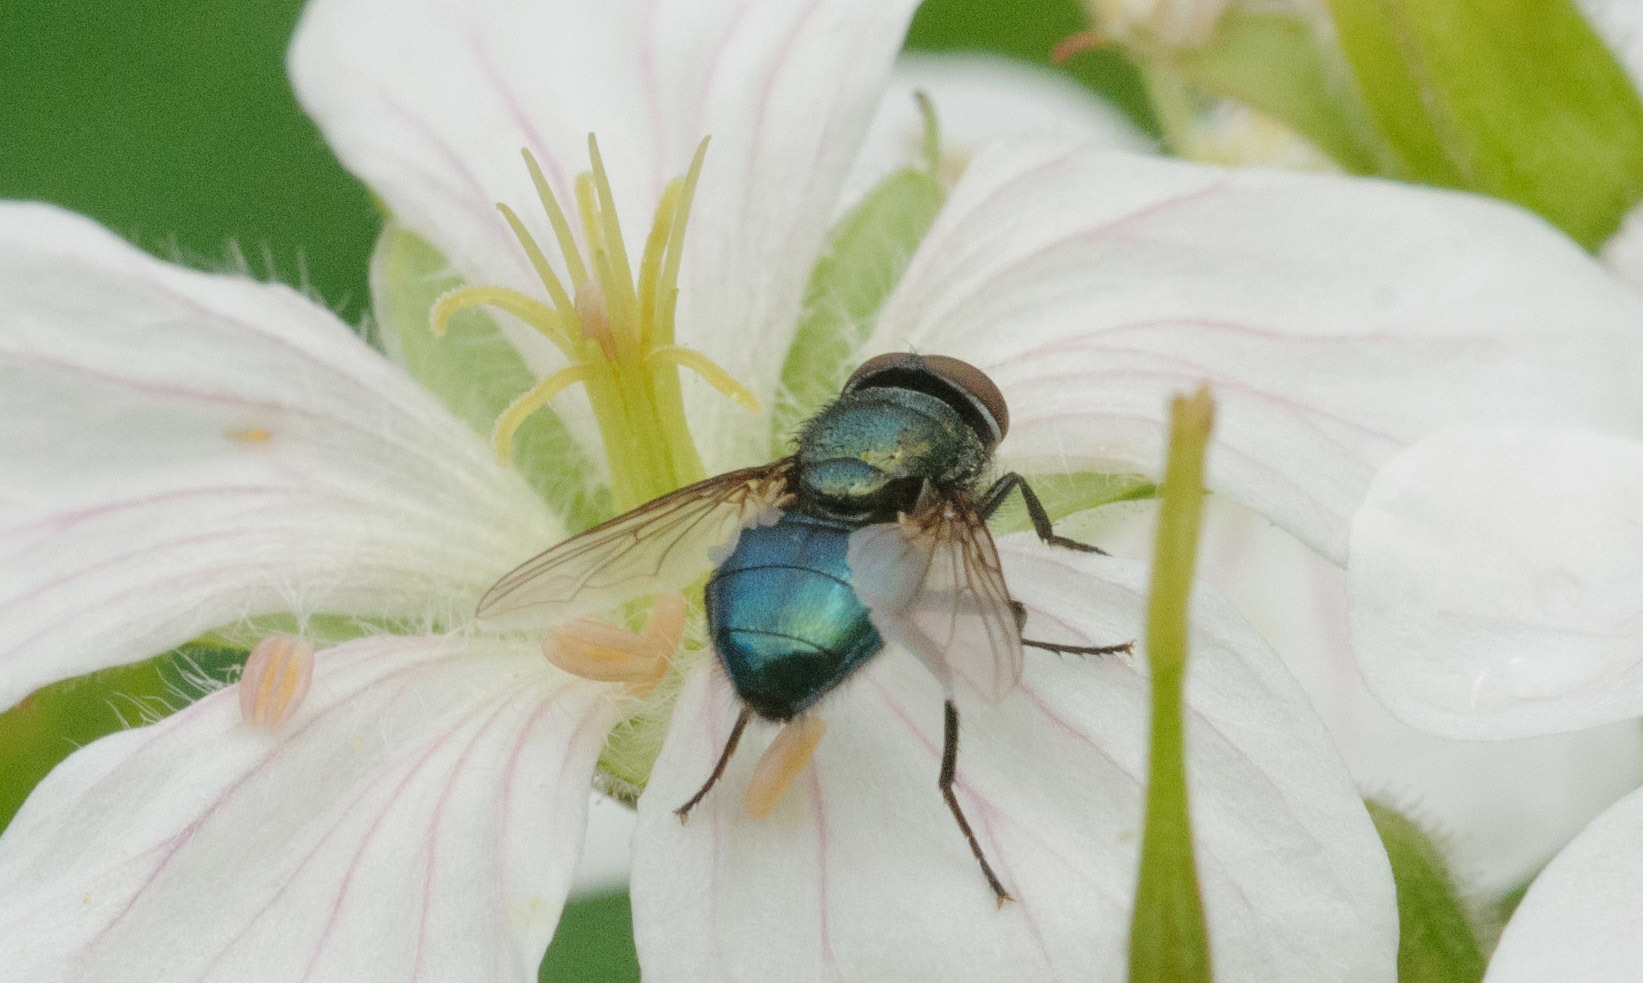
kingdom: Animalia
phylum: Arthropoda
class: Insecta
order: Diptera
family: Calliphoridae
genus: Phormia
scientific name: Phormia regina
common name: Black blow fly
